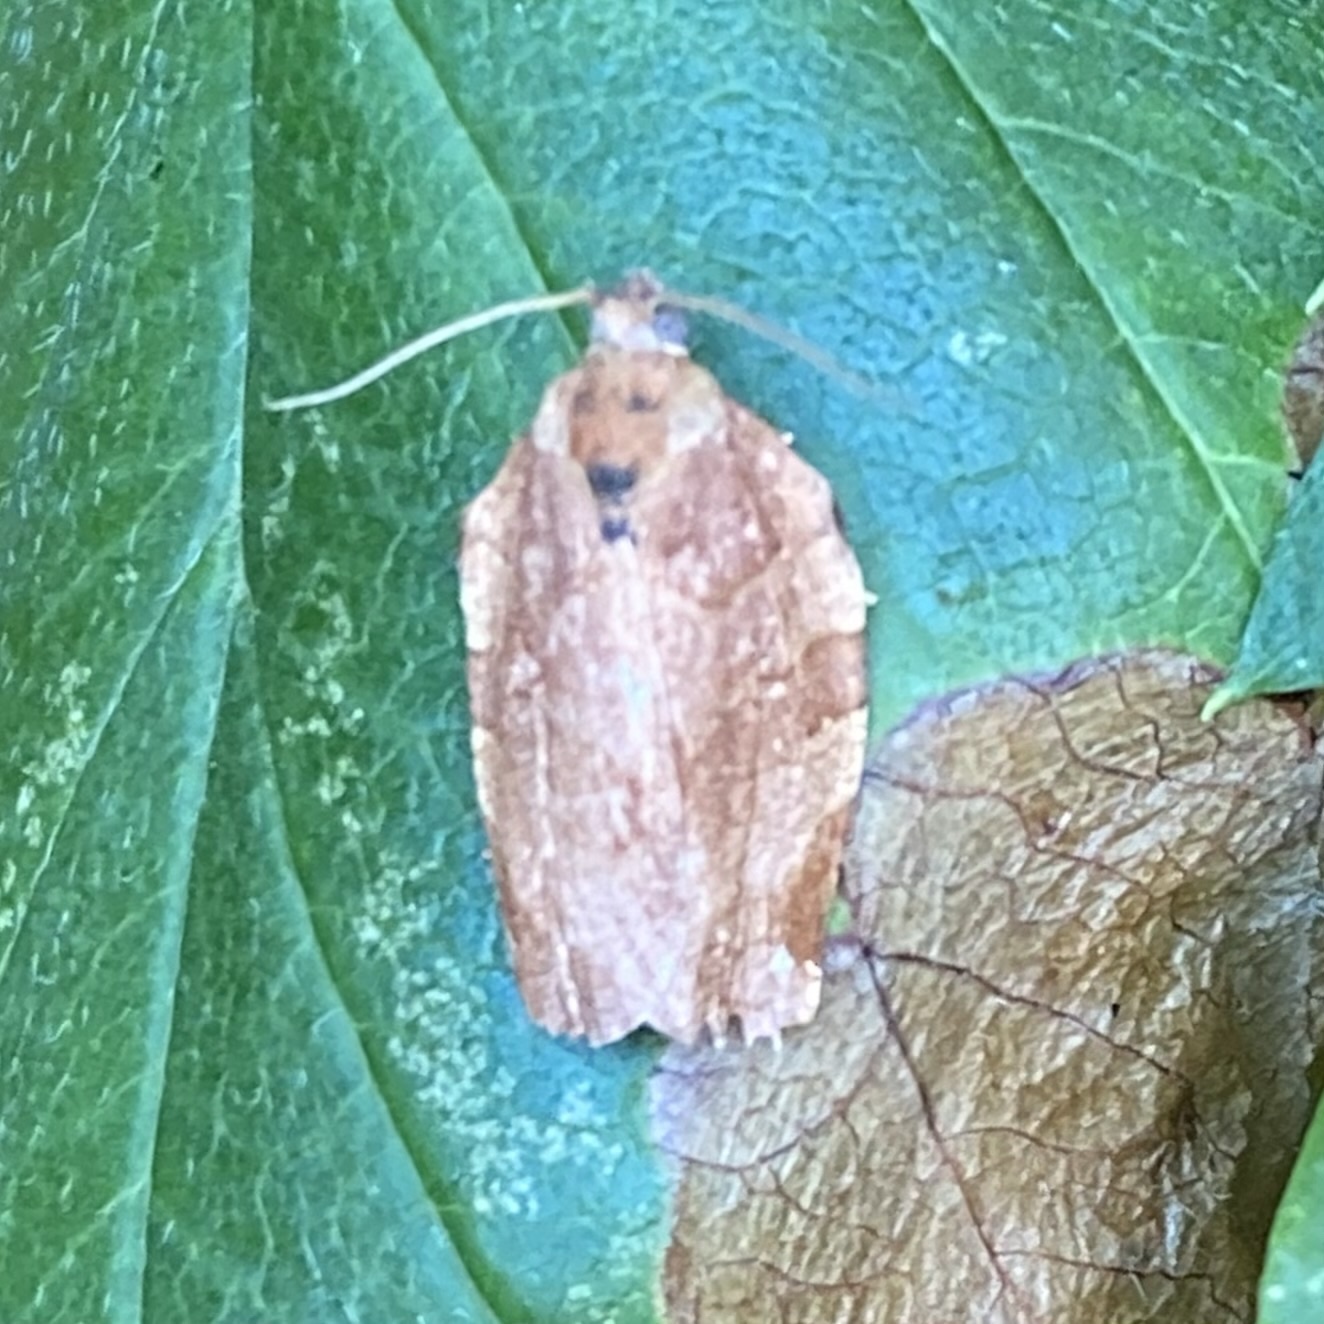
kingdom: Animalia
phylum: Arthropoda
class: Insecta
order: Lepidoptera
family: Tortricidae
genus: Choristoneura
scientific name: Choristoneura rosaceana
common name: Oblique-banded leafroller moth
